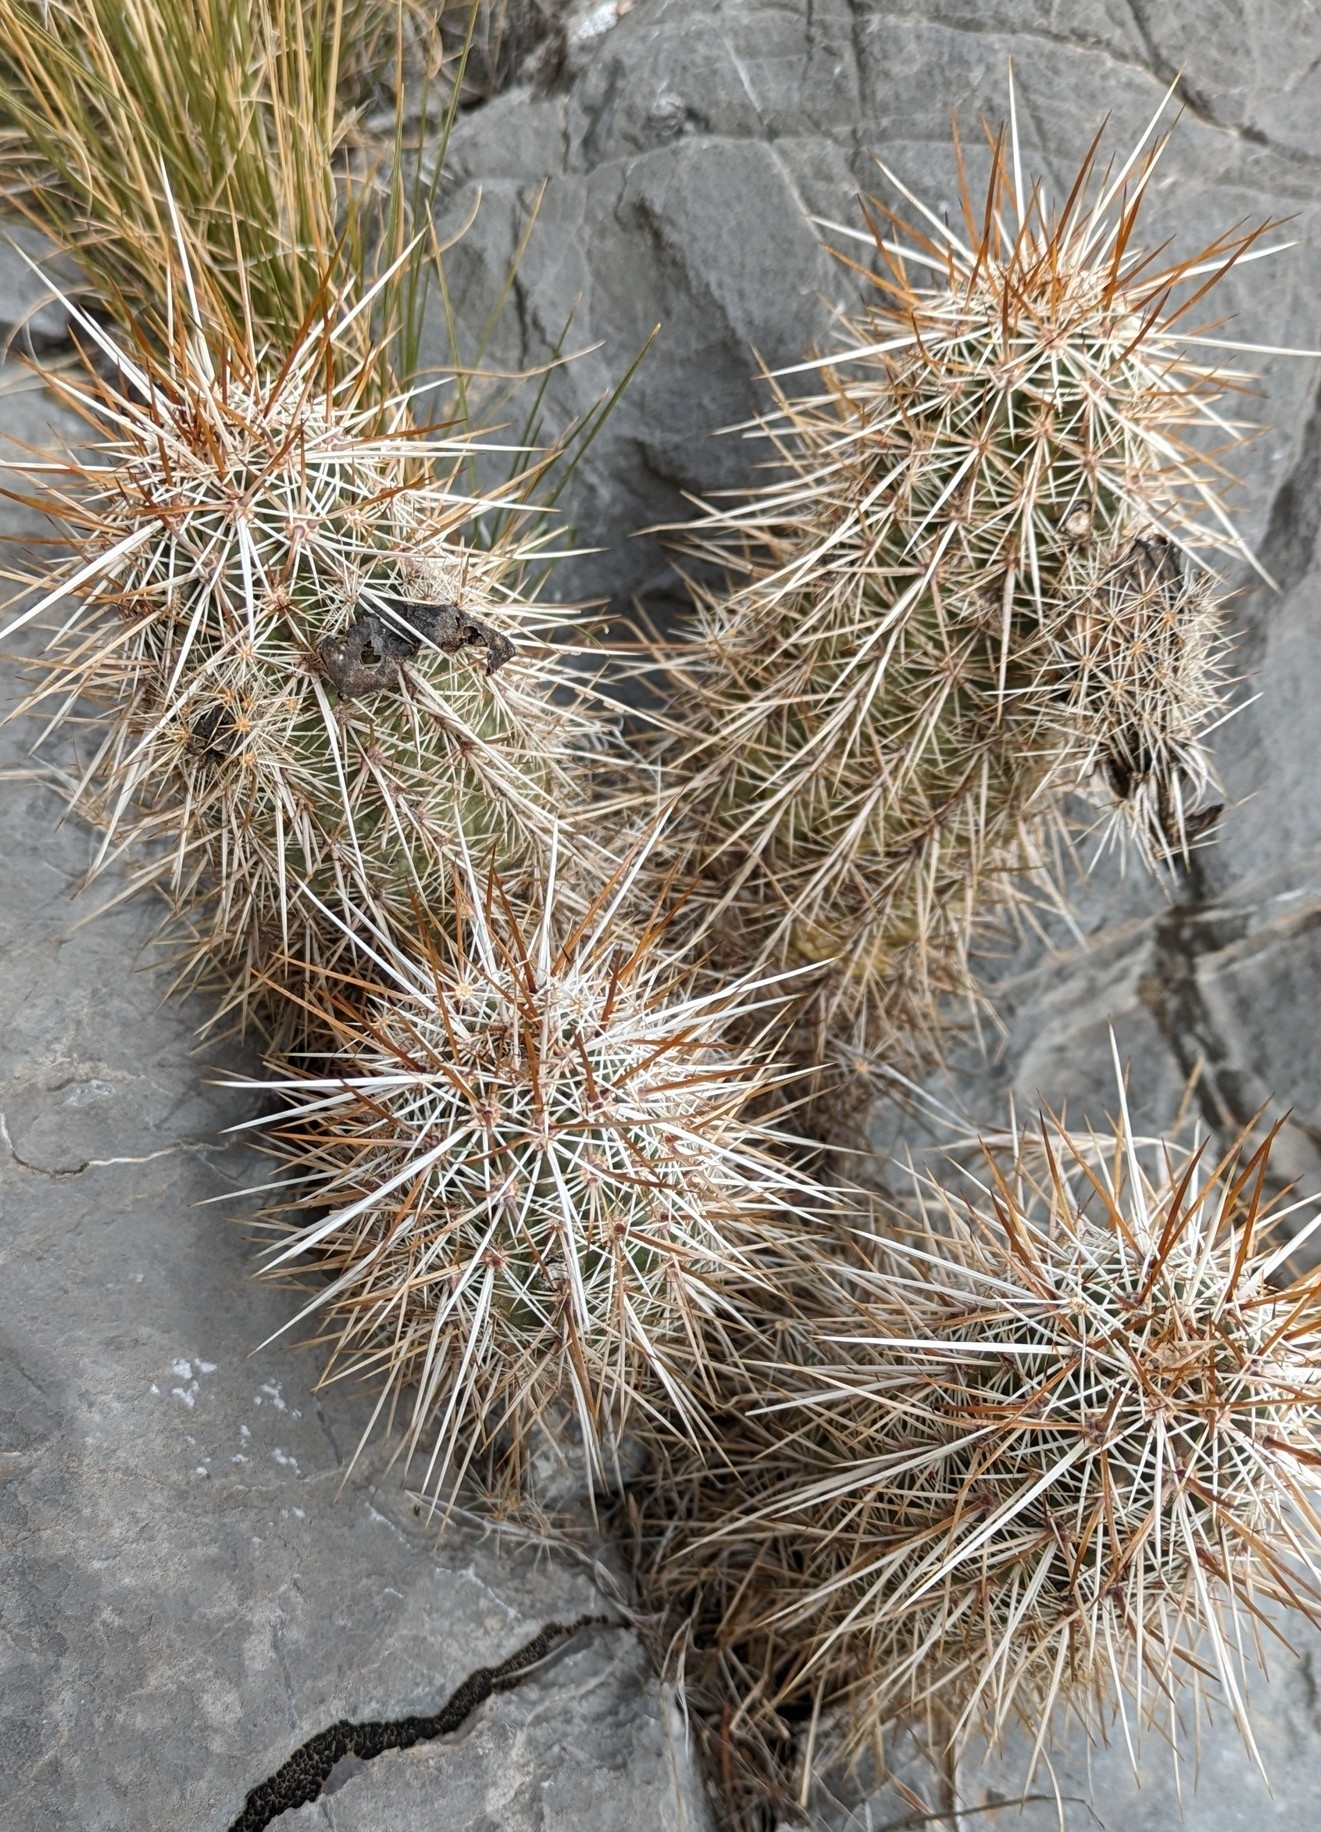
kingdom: Plantae
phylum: Tracheophyta
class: Magnoliopsida
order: Caryophyllales
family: Cactaceae
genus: Echinocereus
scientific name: Echinocereus engelmannii
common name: Engelmann's hedgehog cactus
